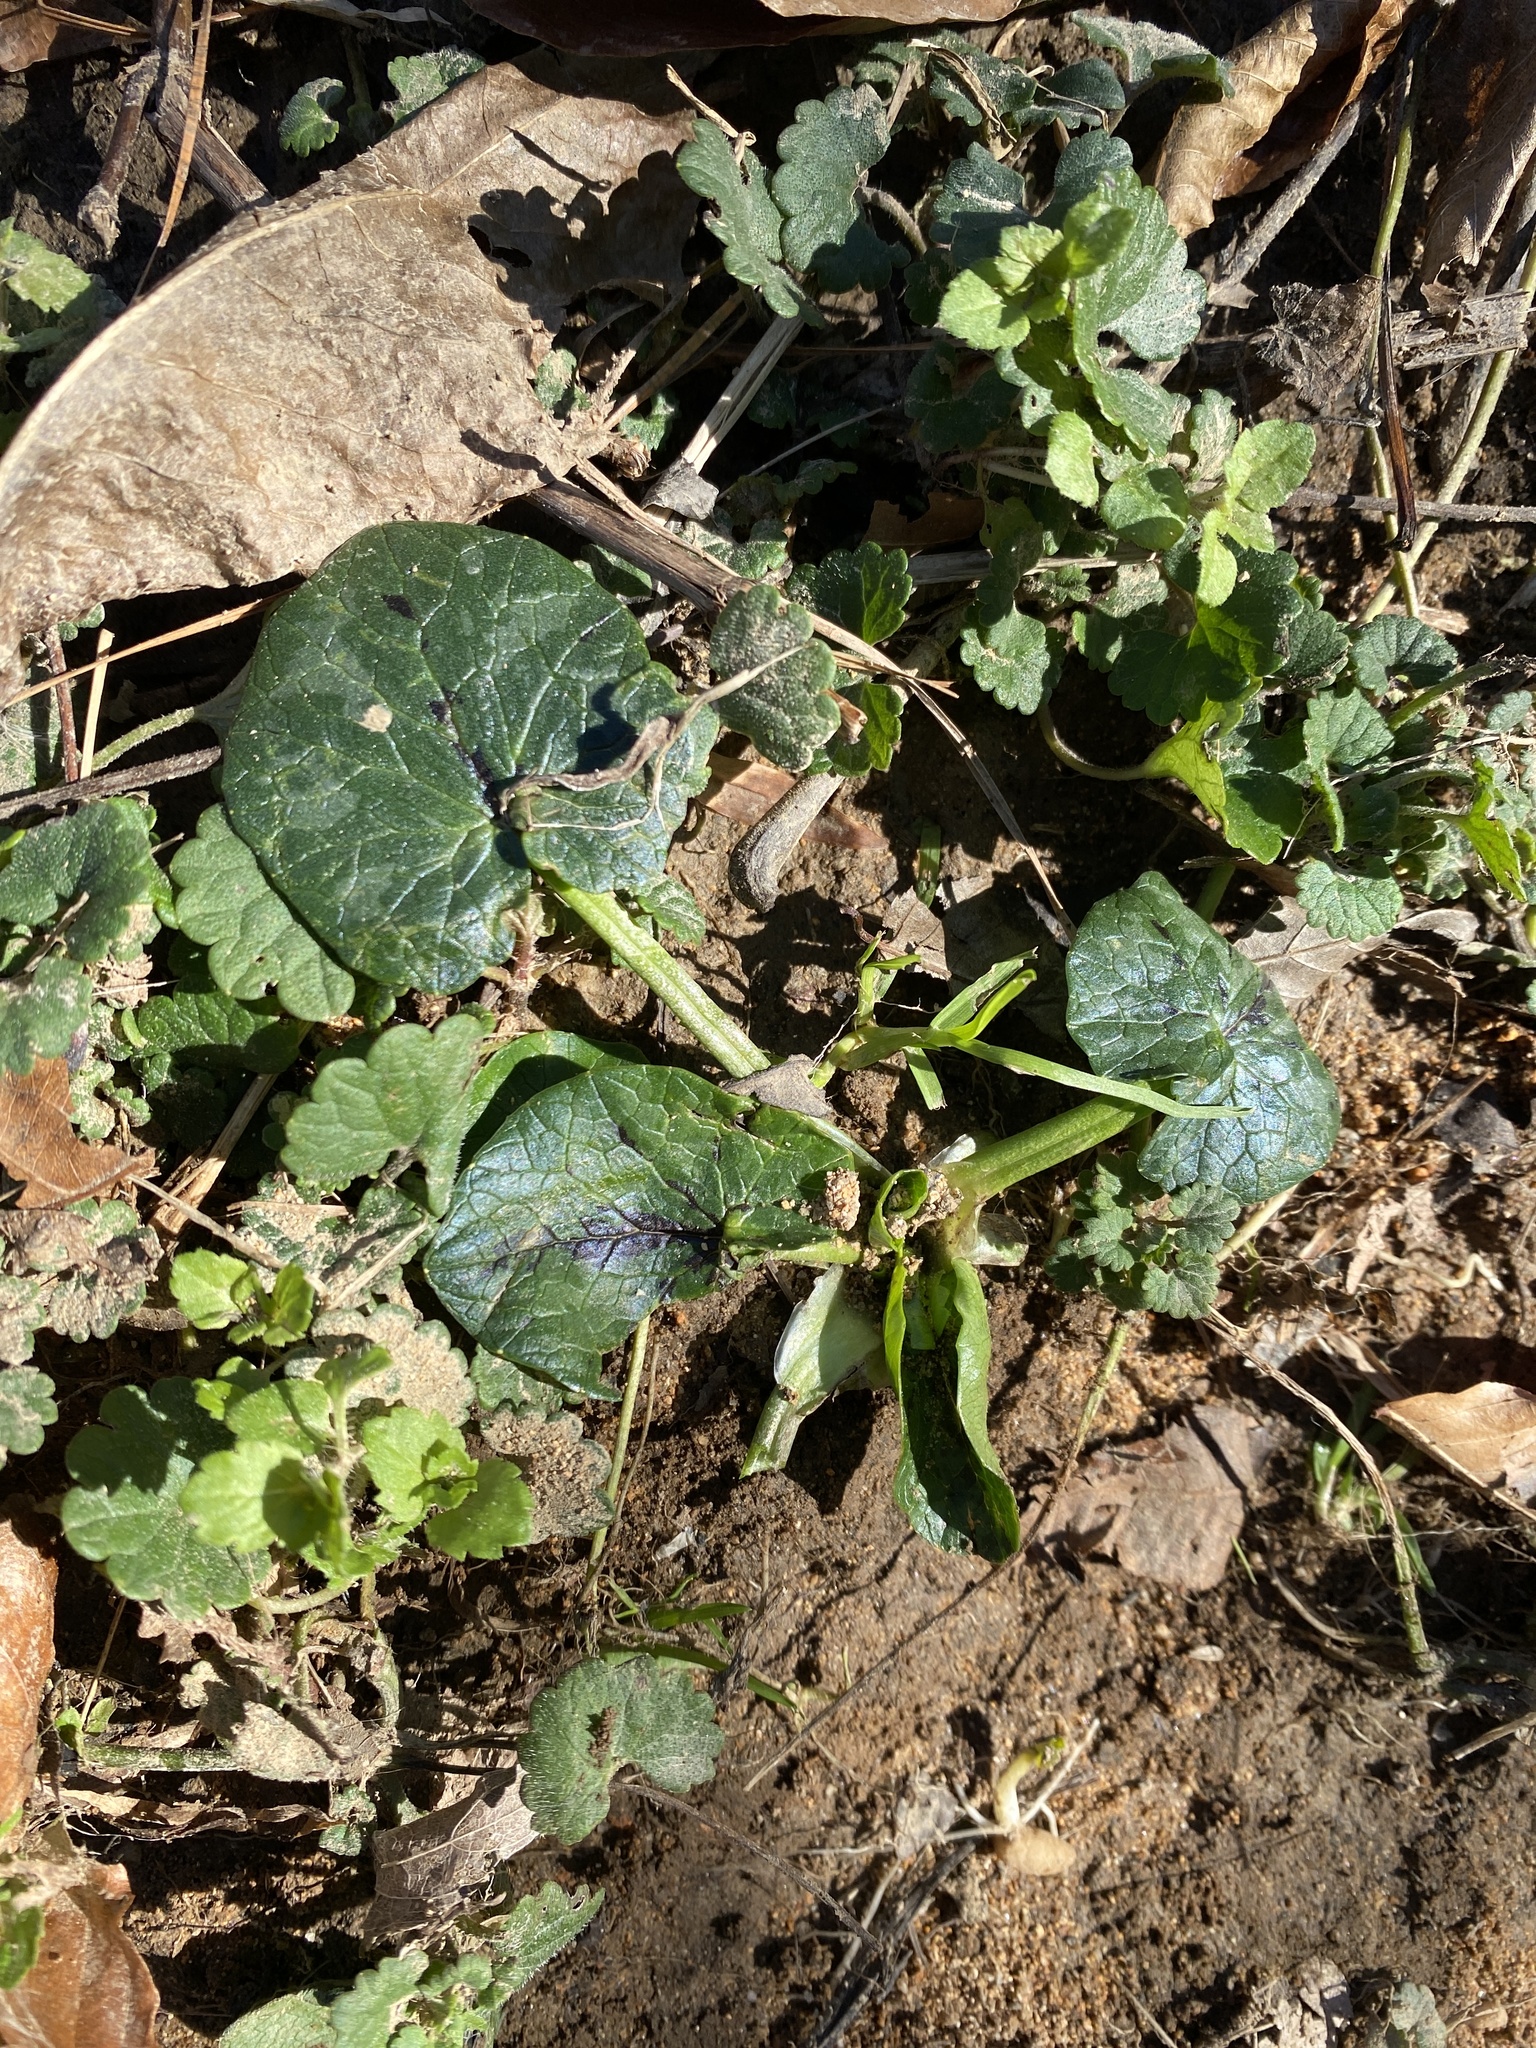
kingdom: Plantae
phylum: Tracheophyta
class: Magnoliopsida
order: Ranunculales
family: Ranunculaceae
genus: Ficaria
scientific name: Ficaria verna
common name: Lesser celandine
